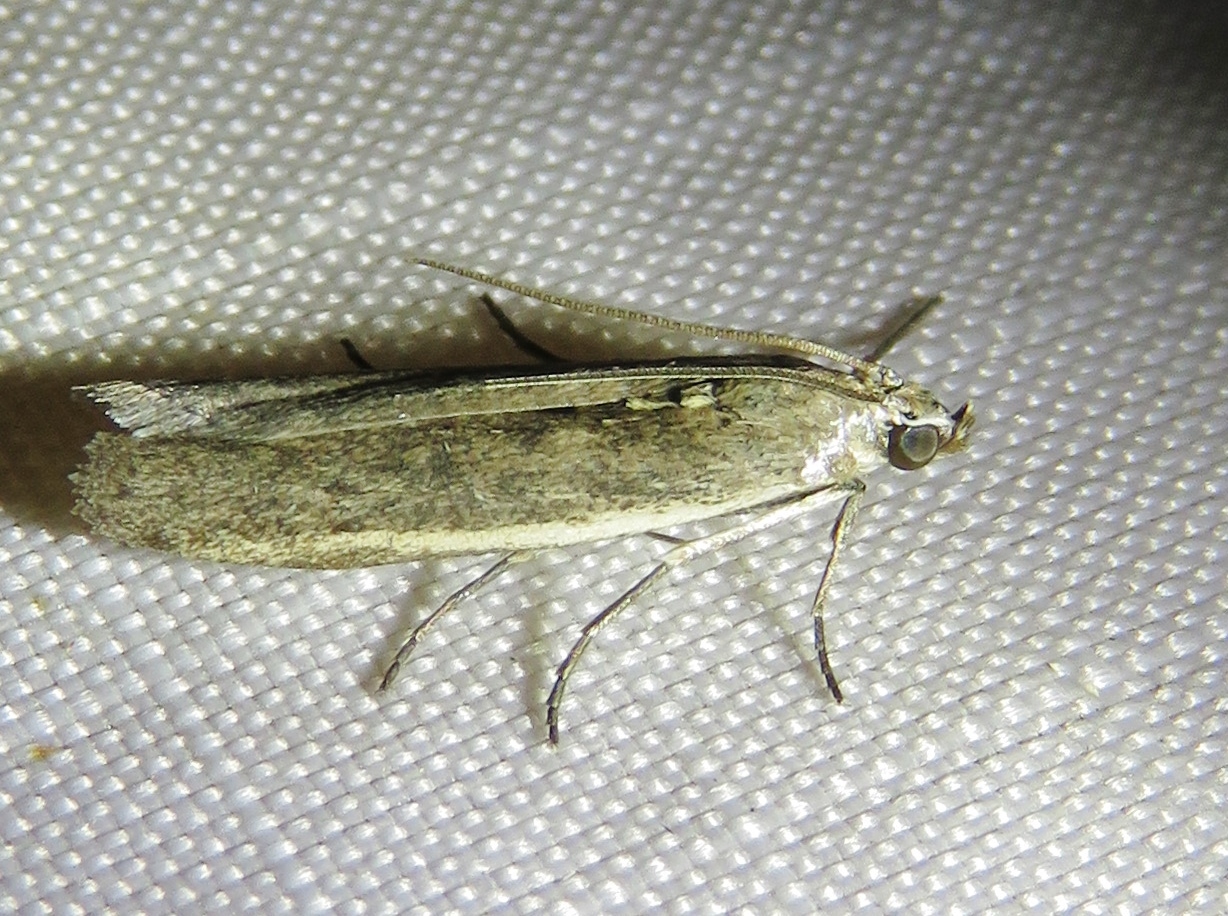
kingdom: Animalia
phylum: Arthropoda
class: Insecta
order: Lepidoptera
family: Pyralidae
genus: Homoeosoma
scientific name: Homoeosoma electella
